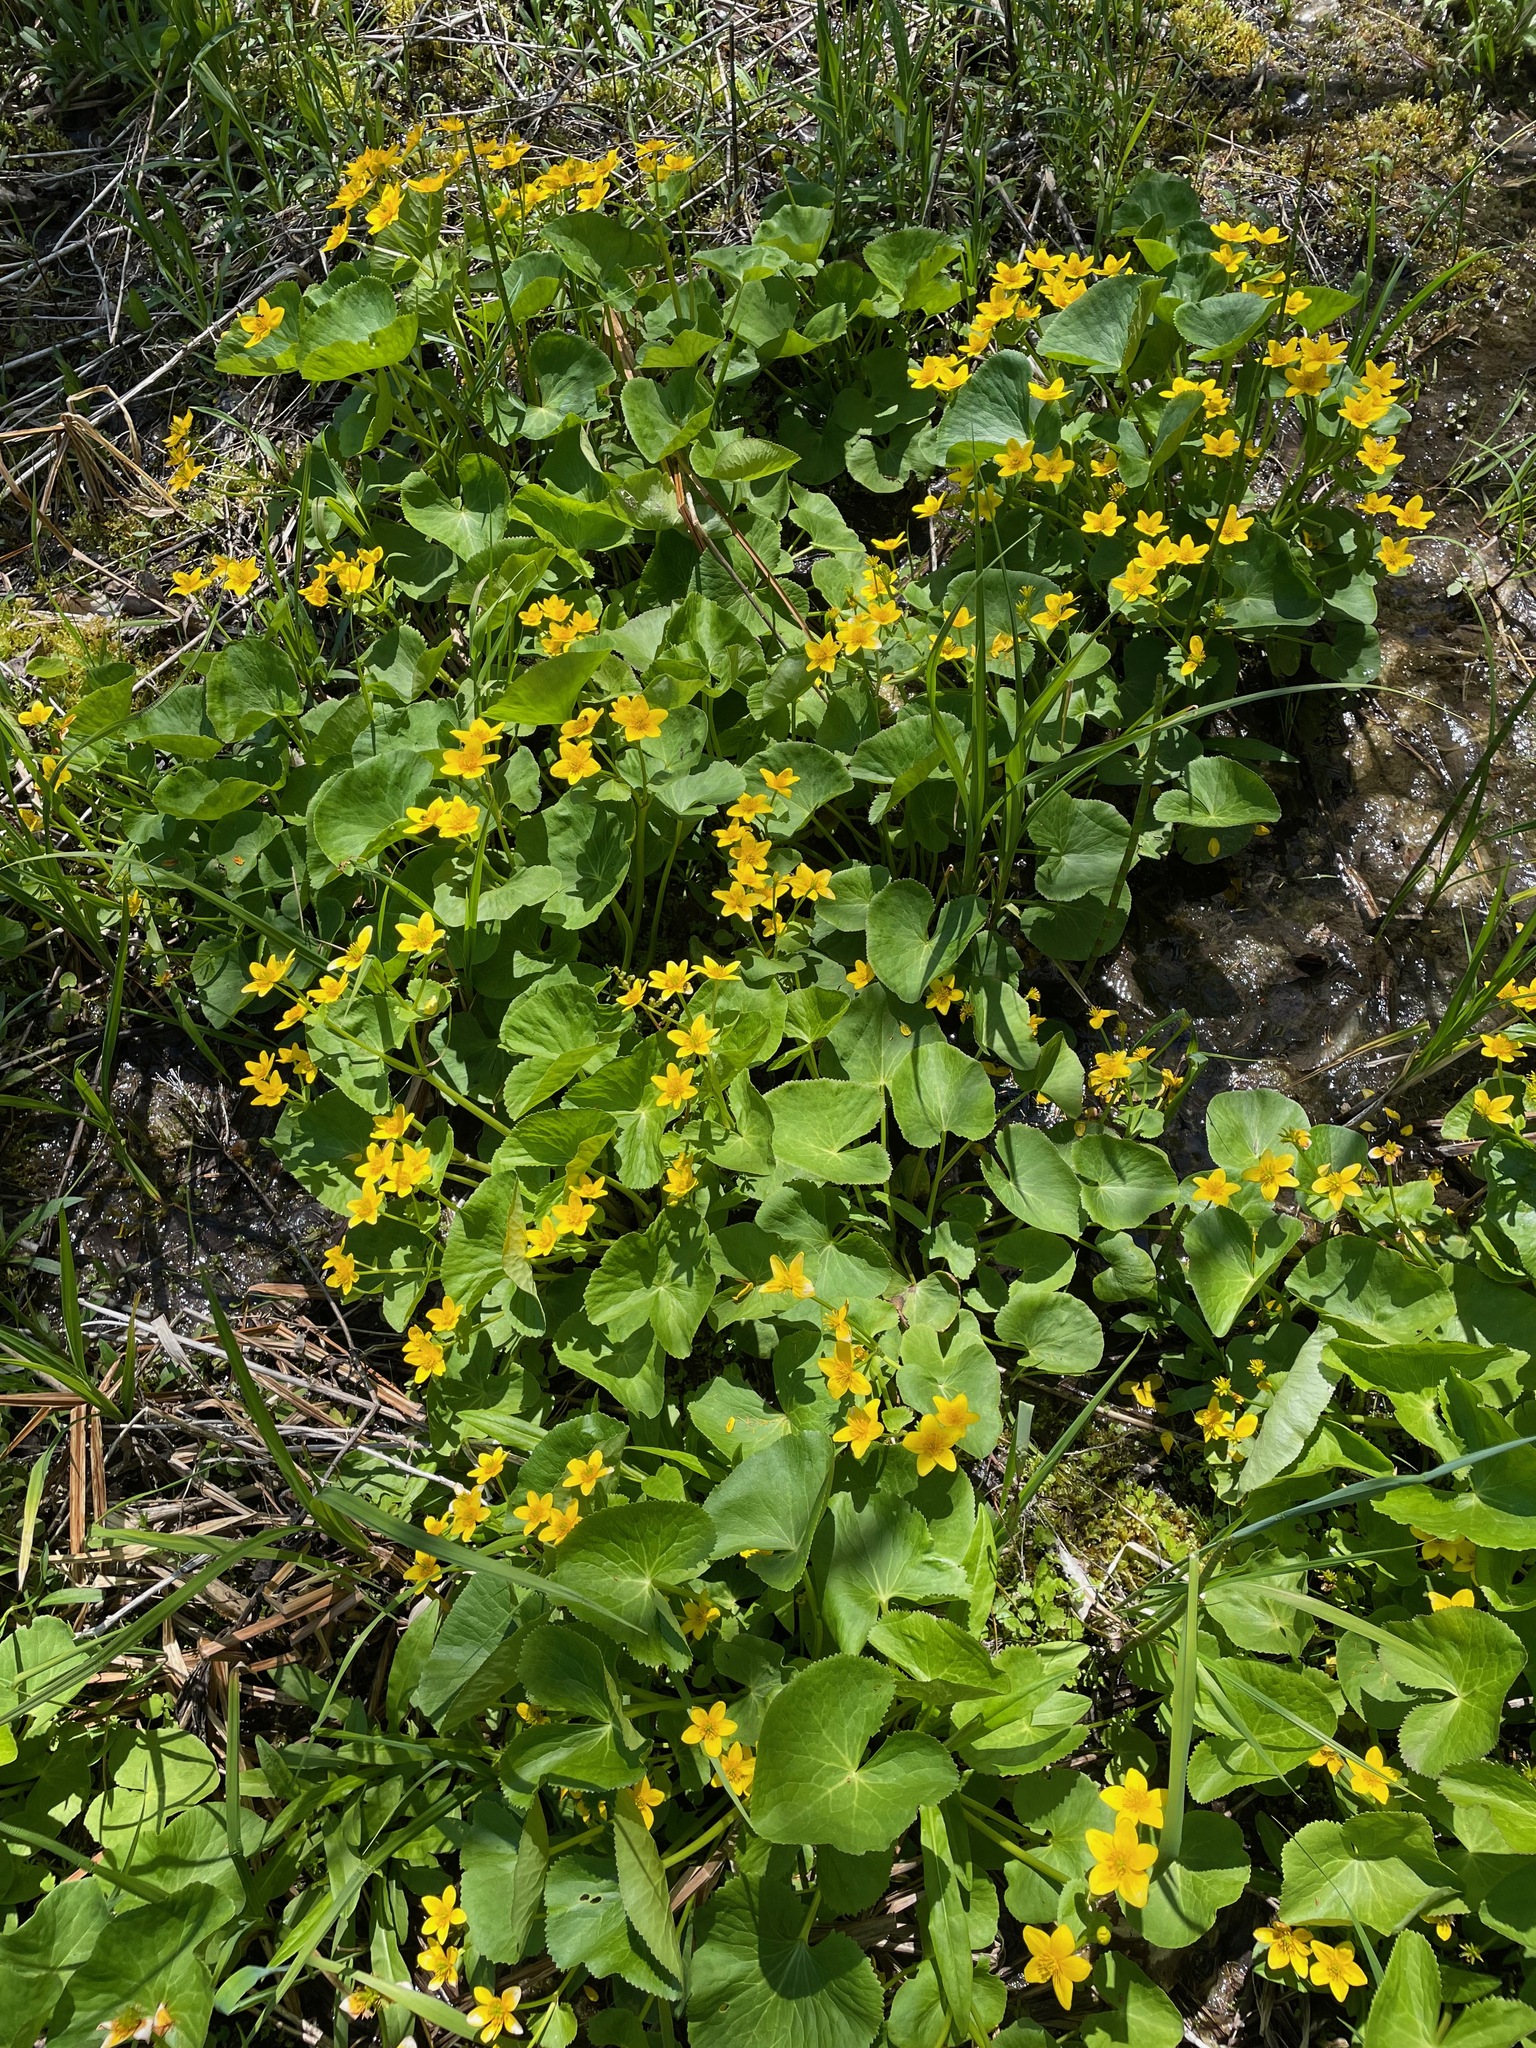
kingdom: Plantae
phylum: Tracheophyta
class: Magnoliopsida
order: Ranunculales
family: Ranunculaceae
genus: Caltha
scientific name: Caltha palustris
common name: Marsh marigold
